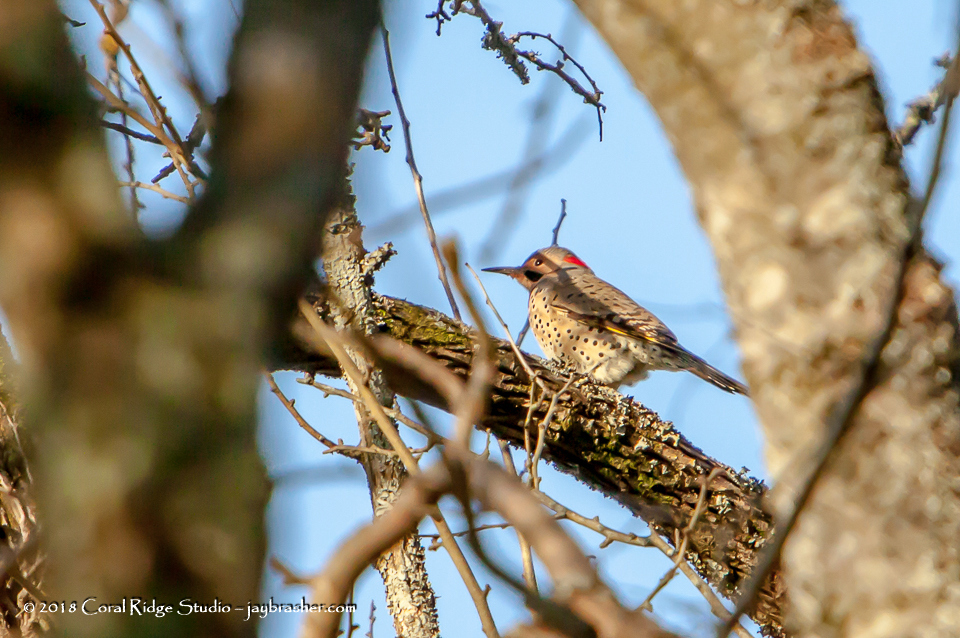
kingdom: Animalia
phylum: Chordata
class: Aves
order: Piciformes
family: Picidae
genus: Colaptes
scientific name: Colaptes auratus
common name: Northern flicker
